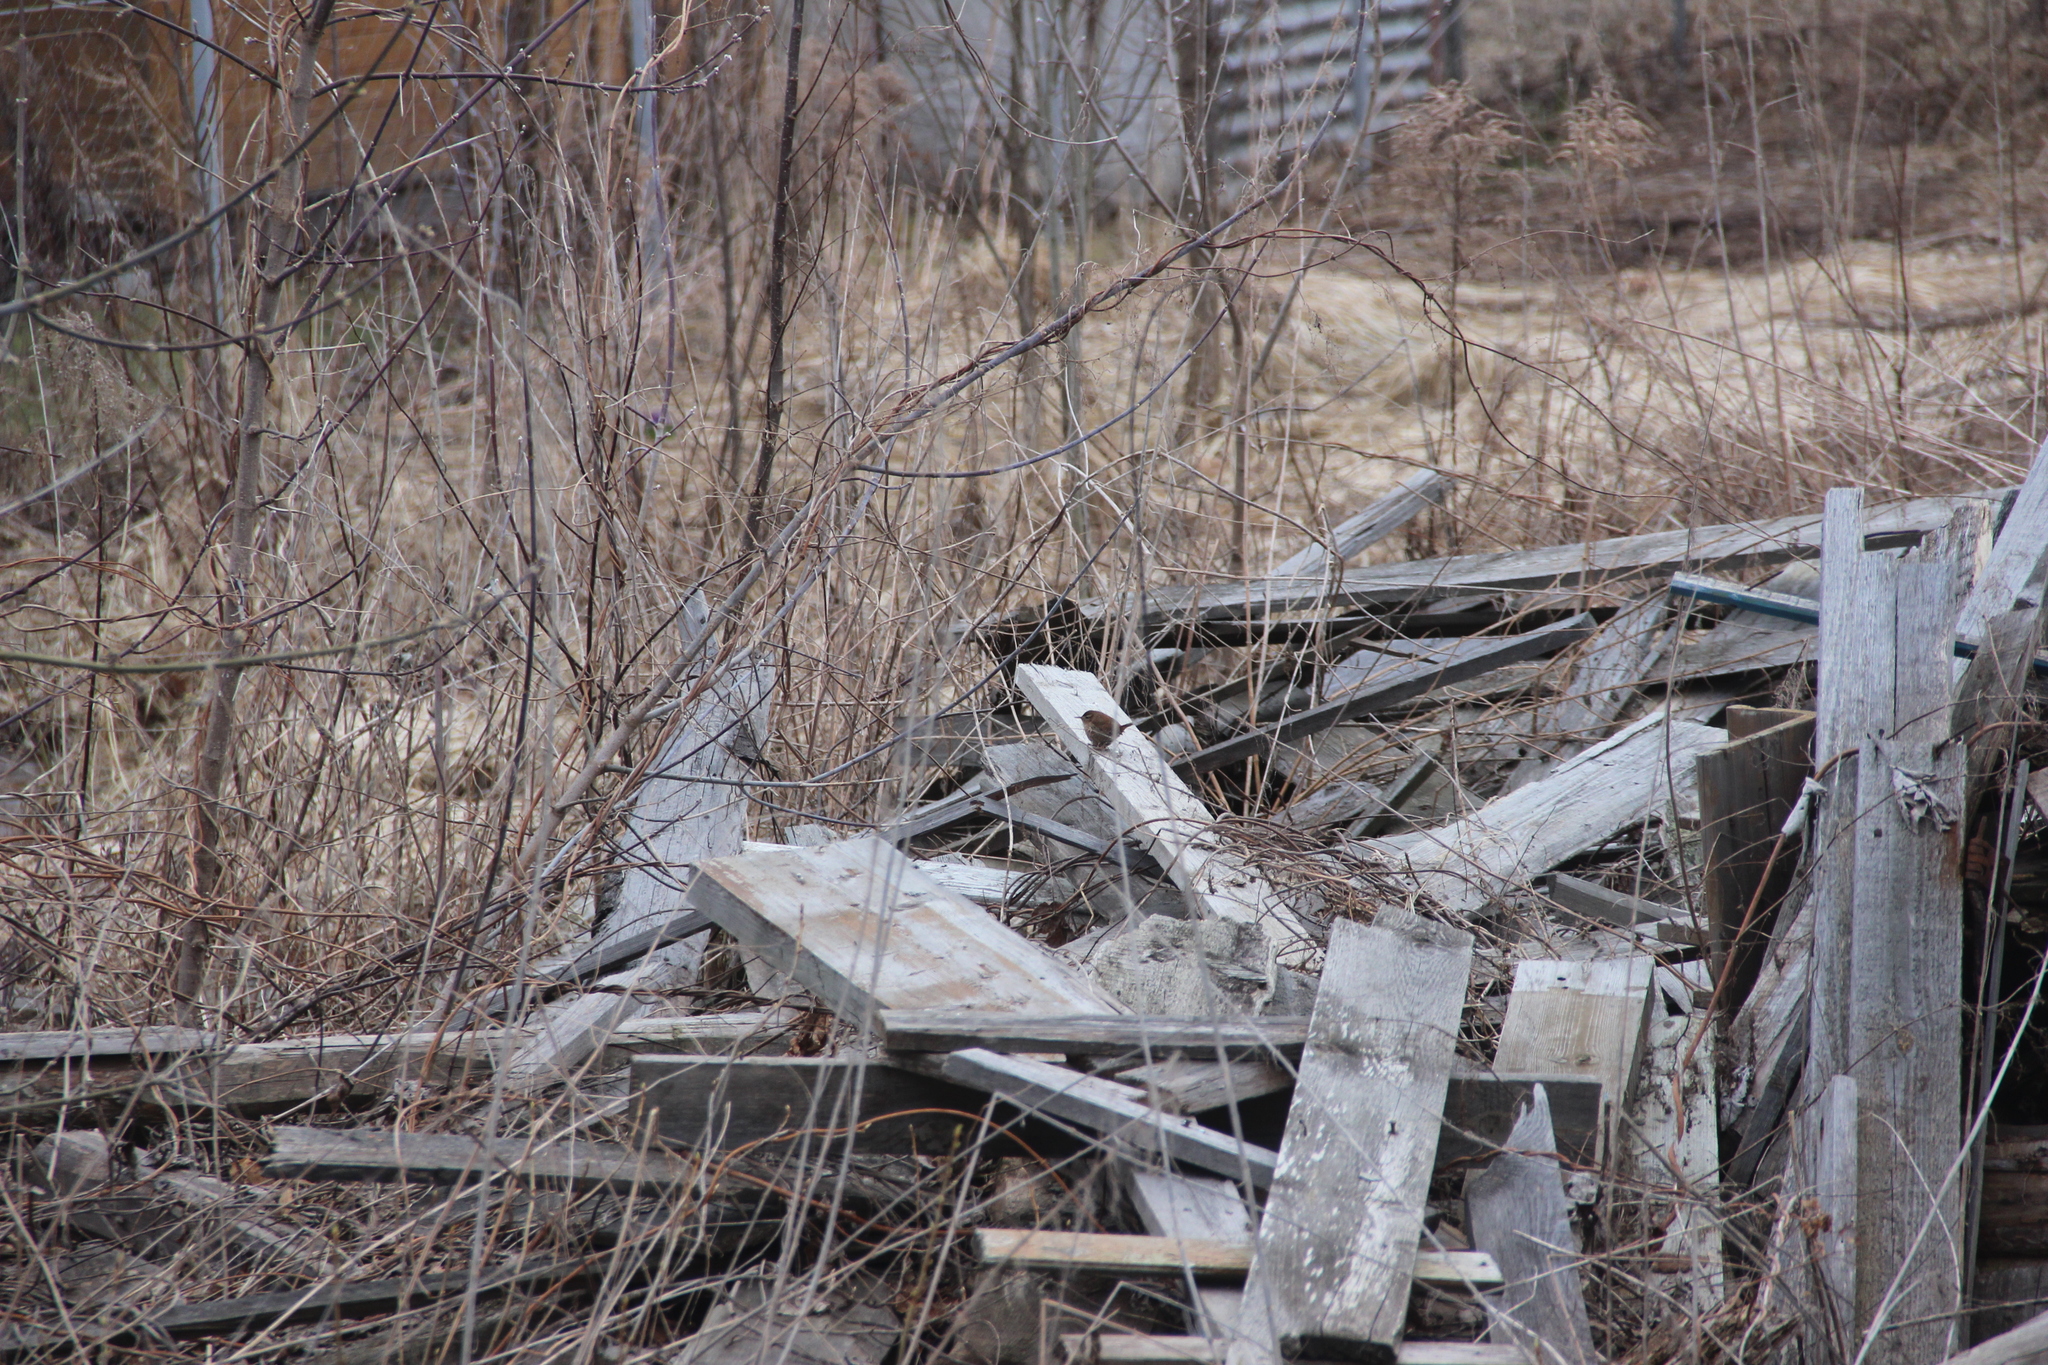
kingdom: Animalia
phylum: Chordata
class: Aves
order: Passeriformes
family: Troglodytidae
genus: Troglodytes
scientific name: Troglodytes troglodytes
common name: Eurasian wren
